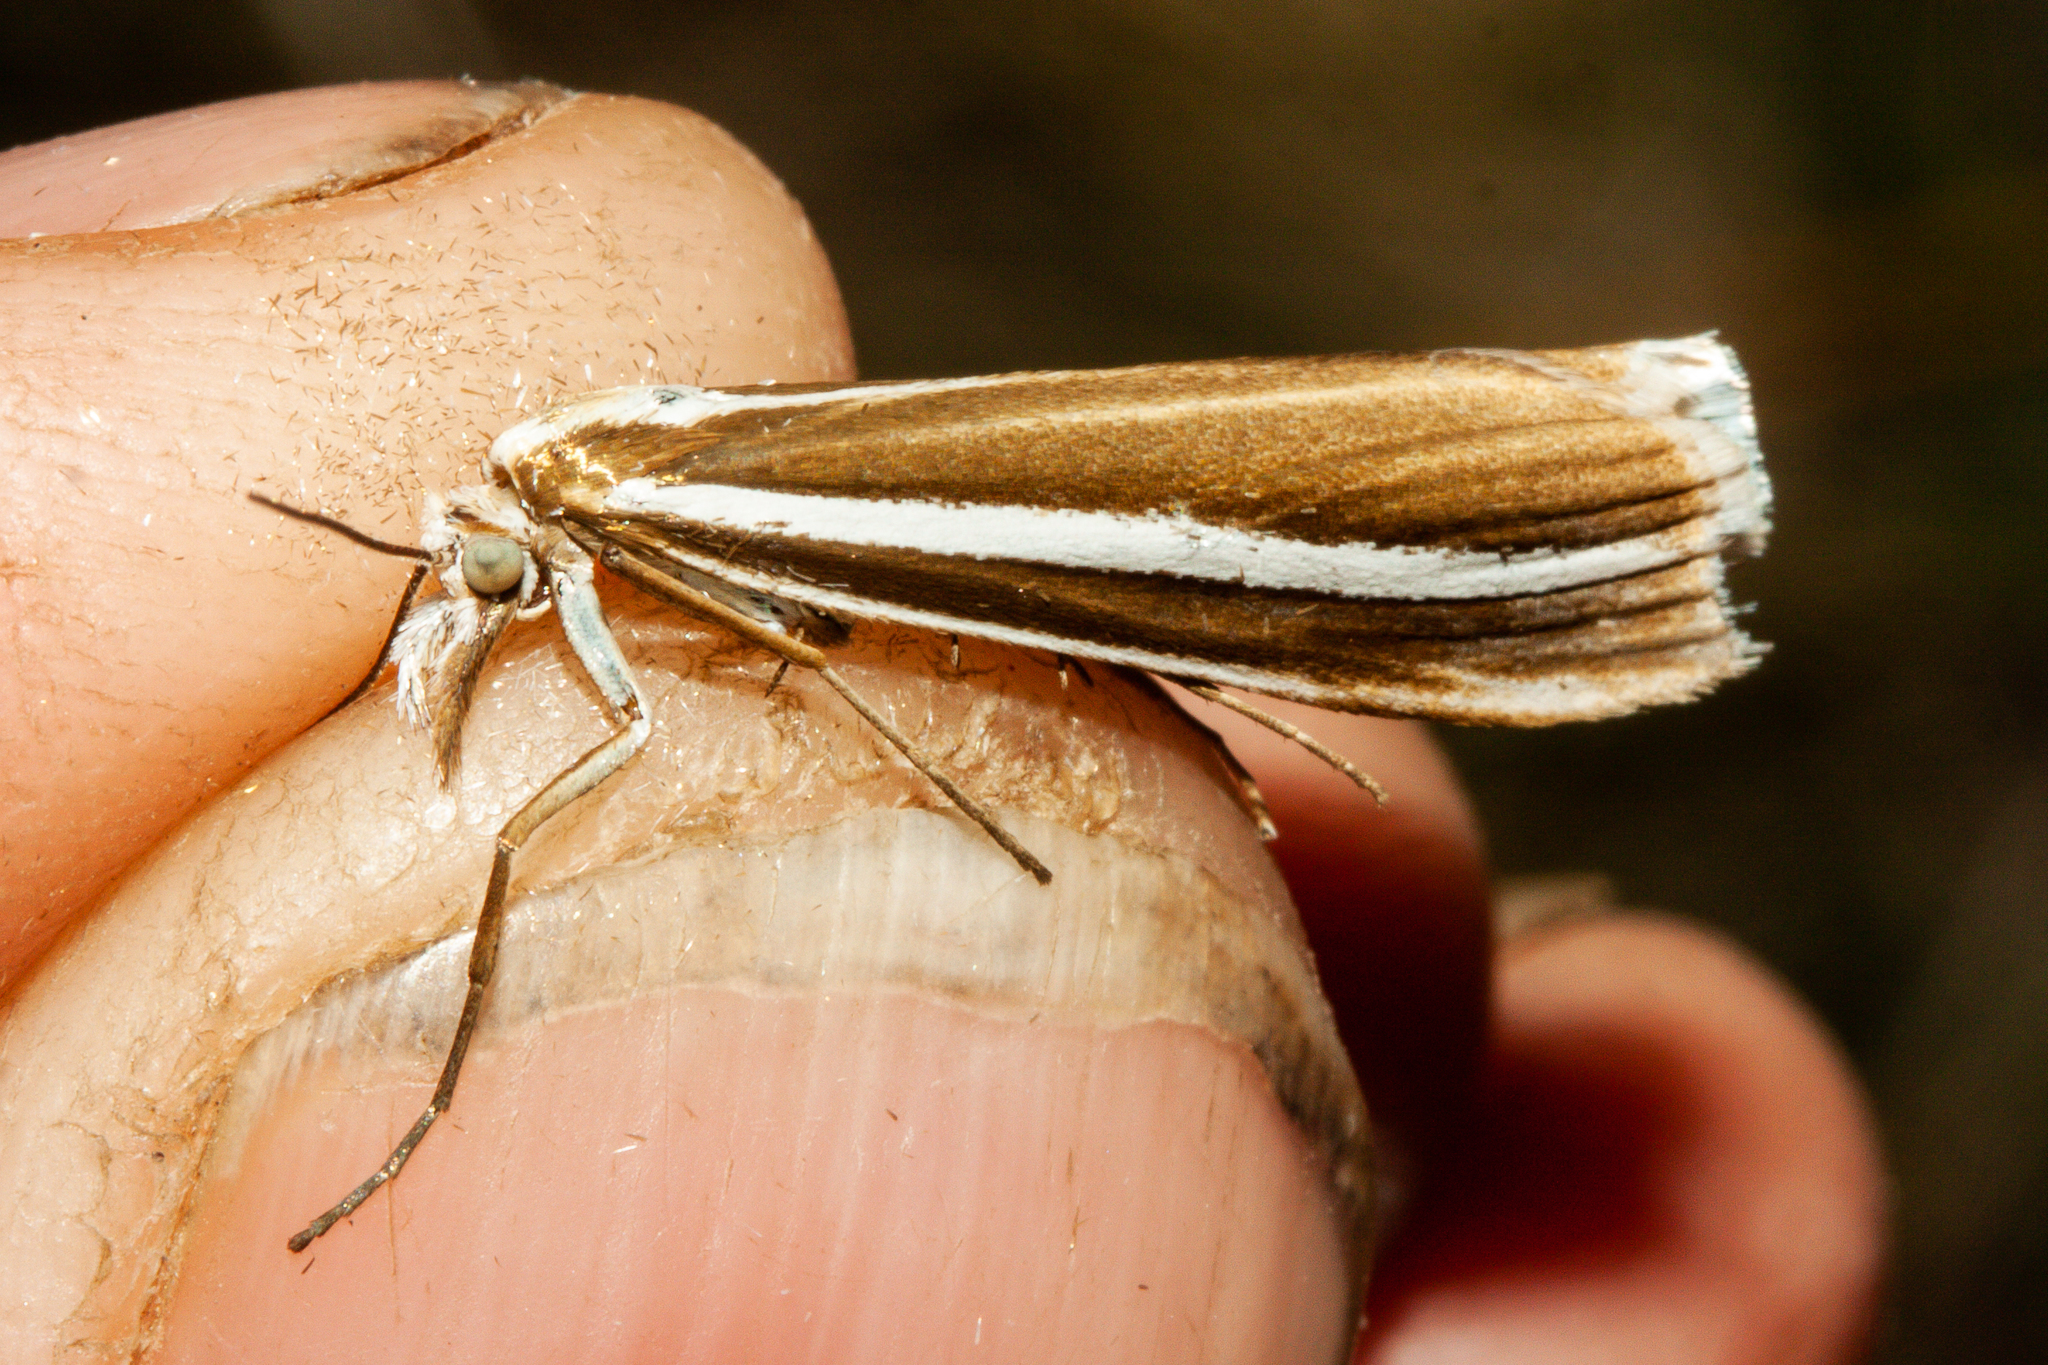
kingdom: Animalia
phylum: Arthropoda
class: Insecta
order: Lepidoptera
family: Crambidae
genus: Orocrambus
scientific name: Orocrambus siriellus
